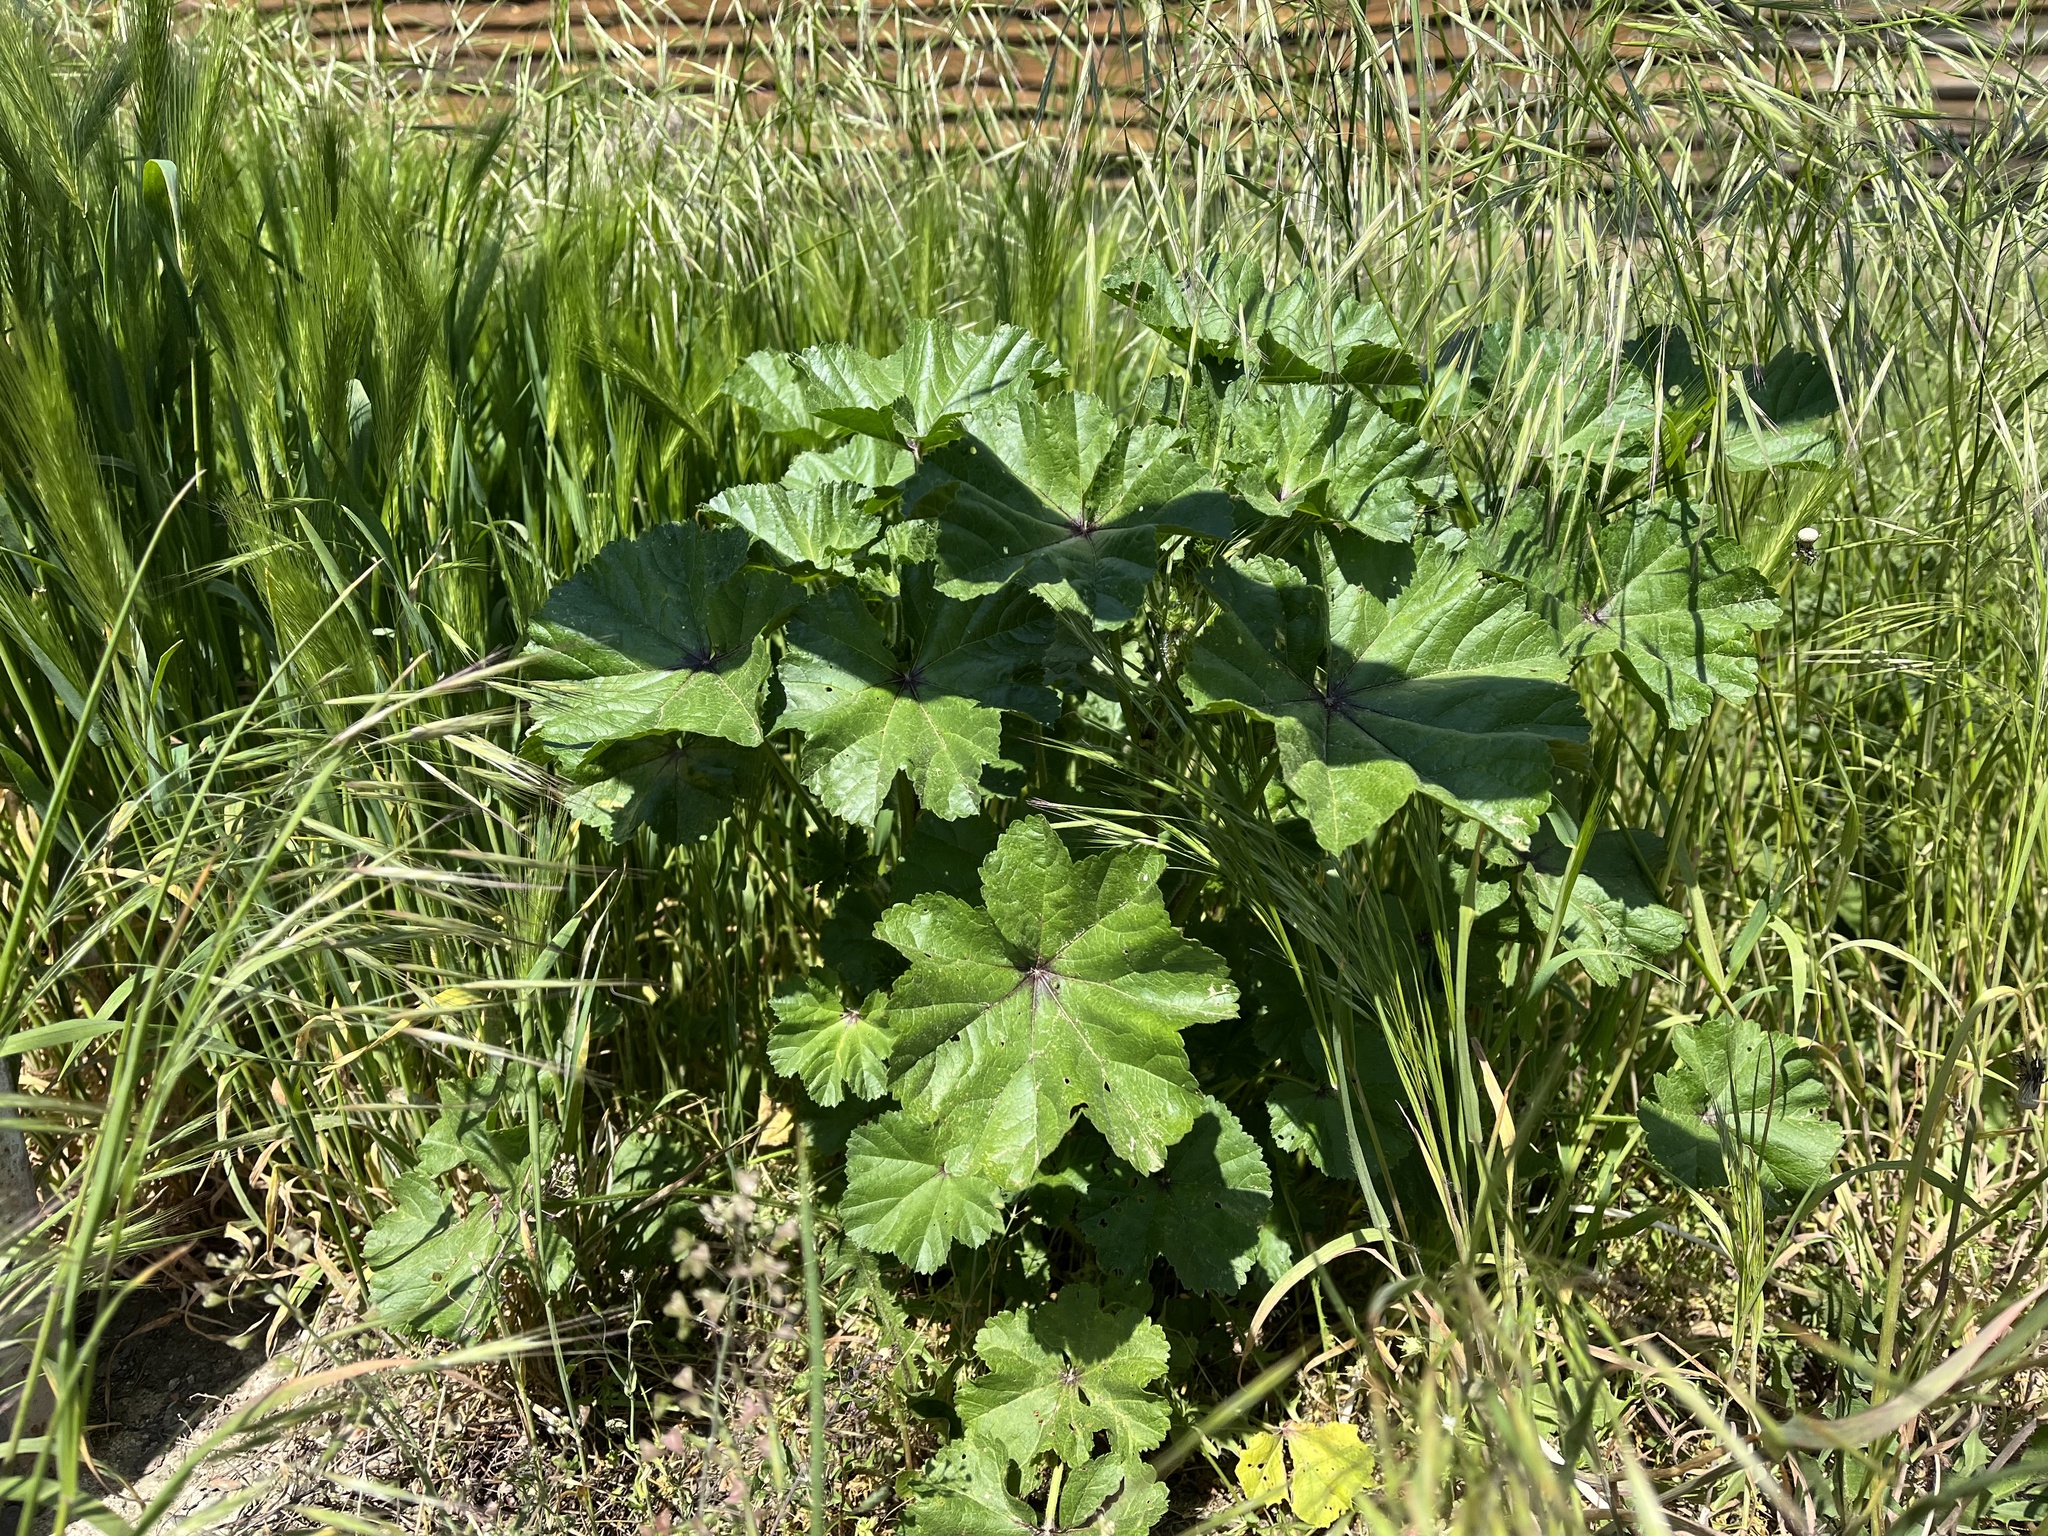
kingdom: Plantae
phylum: Tracheophyta
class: Magnoliopsida
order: Malvales
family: Malvaceae
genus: Malva
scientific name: Malva sylvestris
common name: Common mallow
